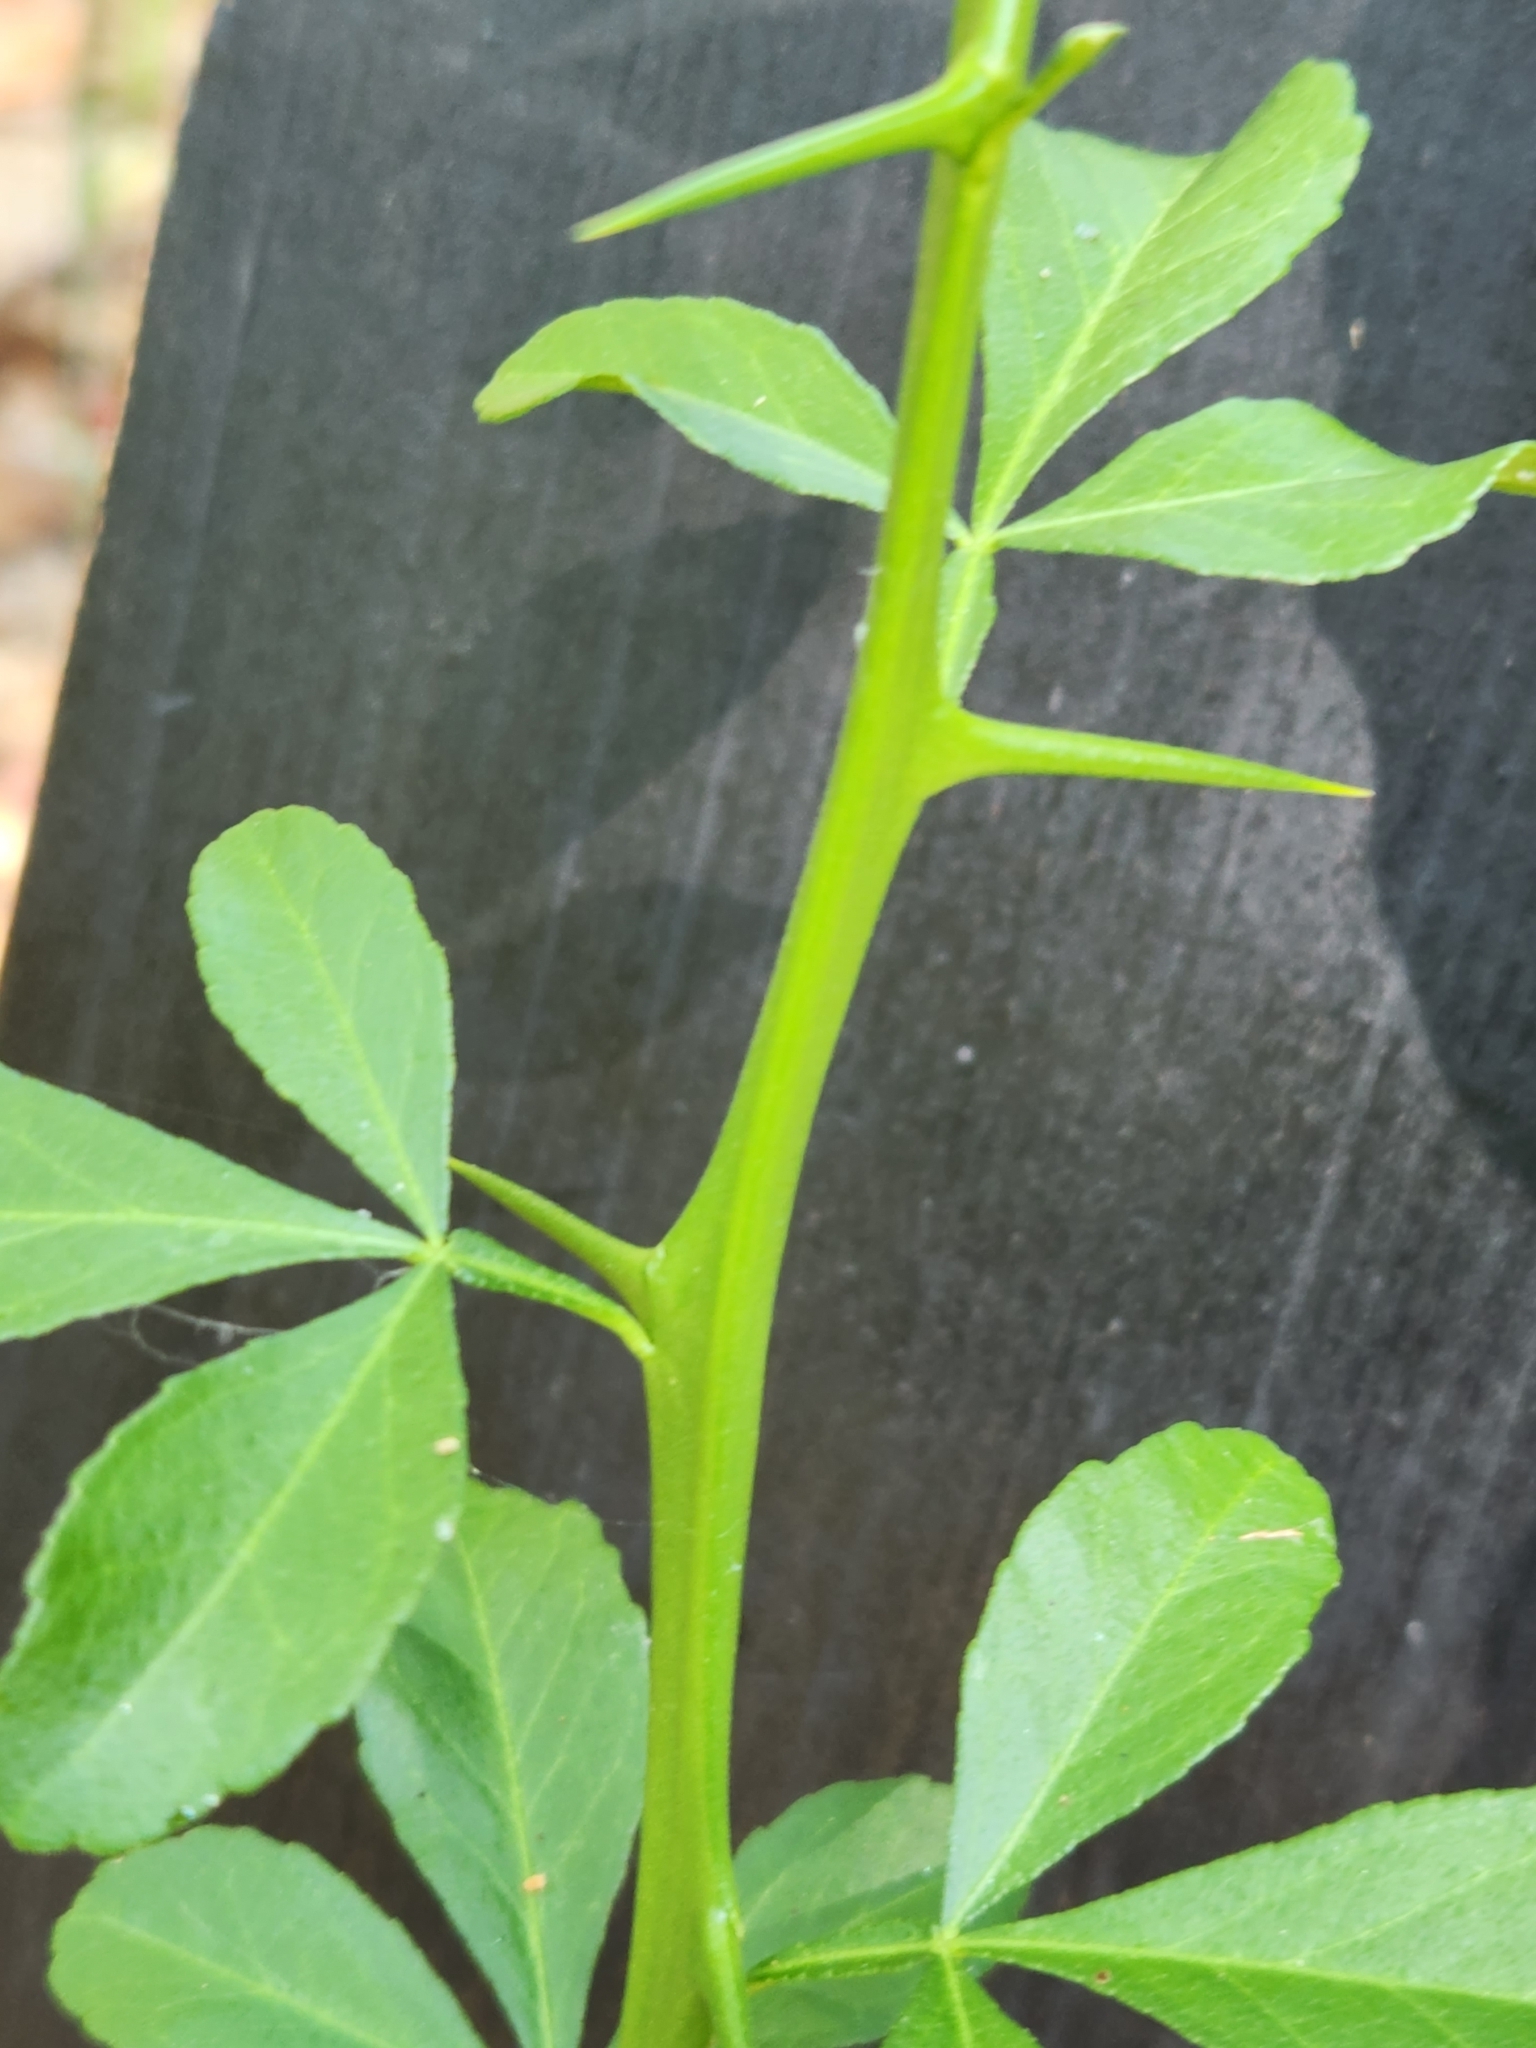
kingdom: Plantae
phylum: Tracheophyta
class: Magnoliopsida
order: Sapindales
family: Rutaceae
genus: Citrus
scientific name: Citrus trifoliata
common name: Japanese bitter-orange
